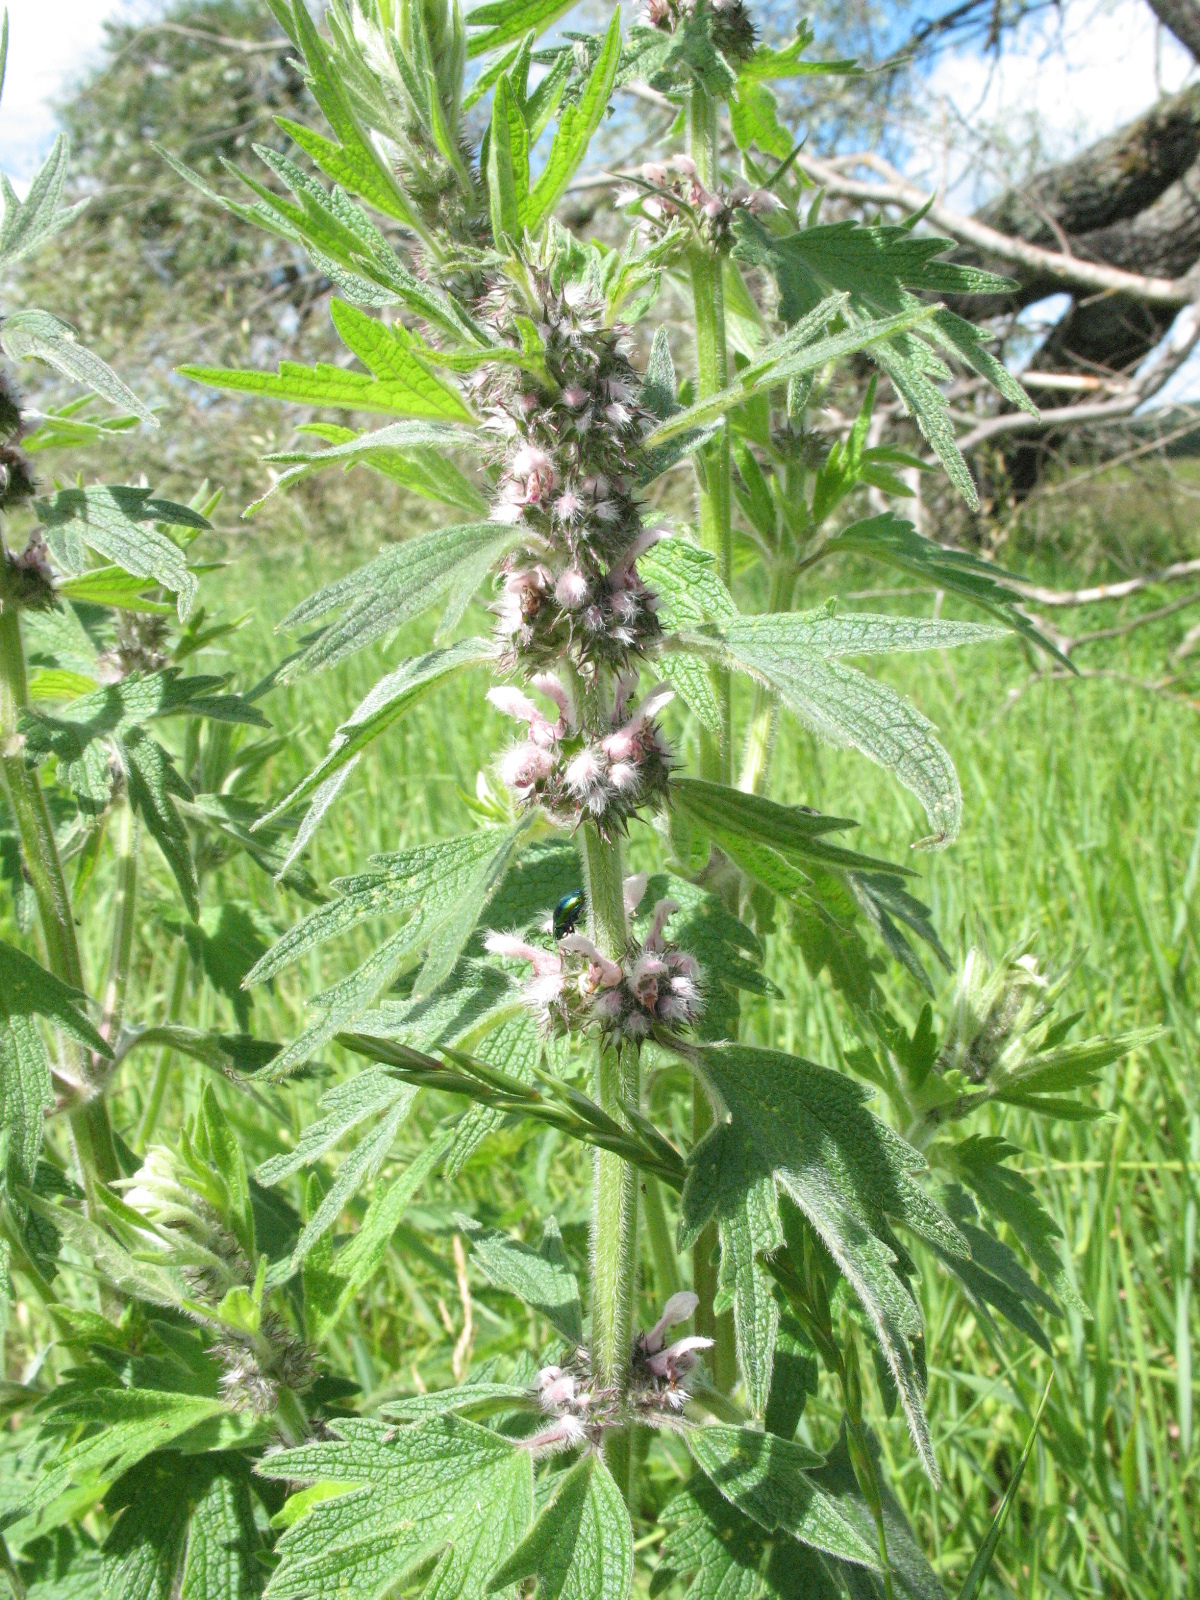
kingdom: Plantae
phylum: Tracheophyta
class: Magnoliopsida
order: Lamiales
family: Lamiaceae
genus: Leonurus
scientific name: Leonurus quinquelobatus
